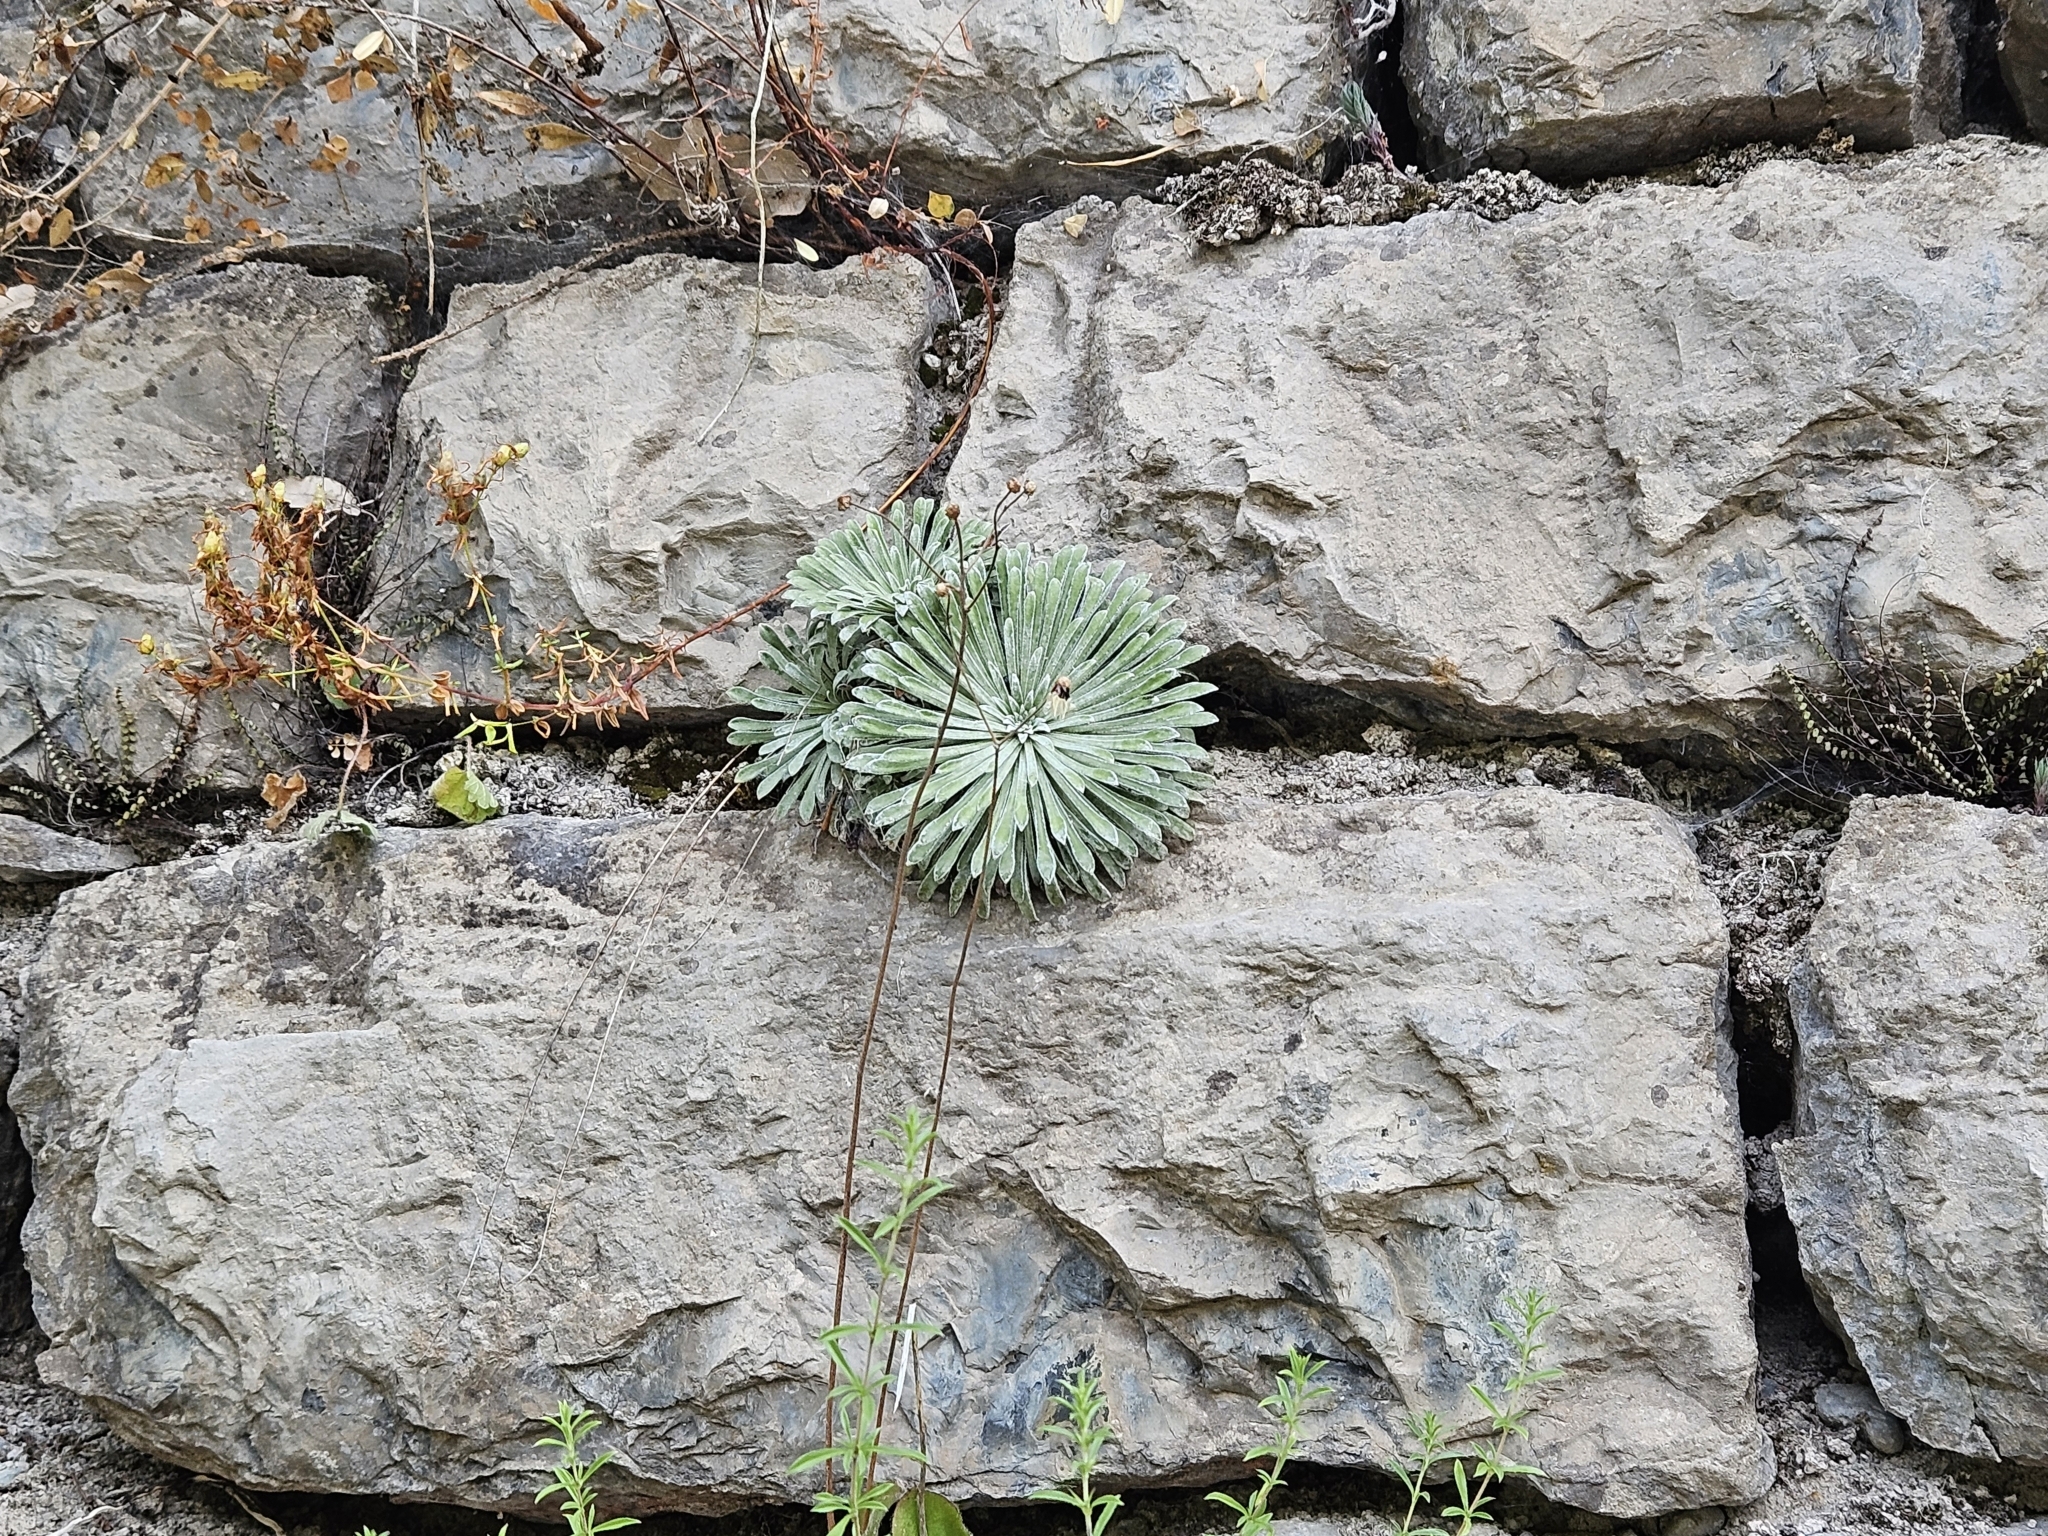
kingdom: Plantae
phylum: Tracheophyta
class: Magnoliopsida
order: Saxifragales
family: Saxifragaceae
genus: Saxifraga
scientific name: Saxifraga longifolia
